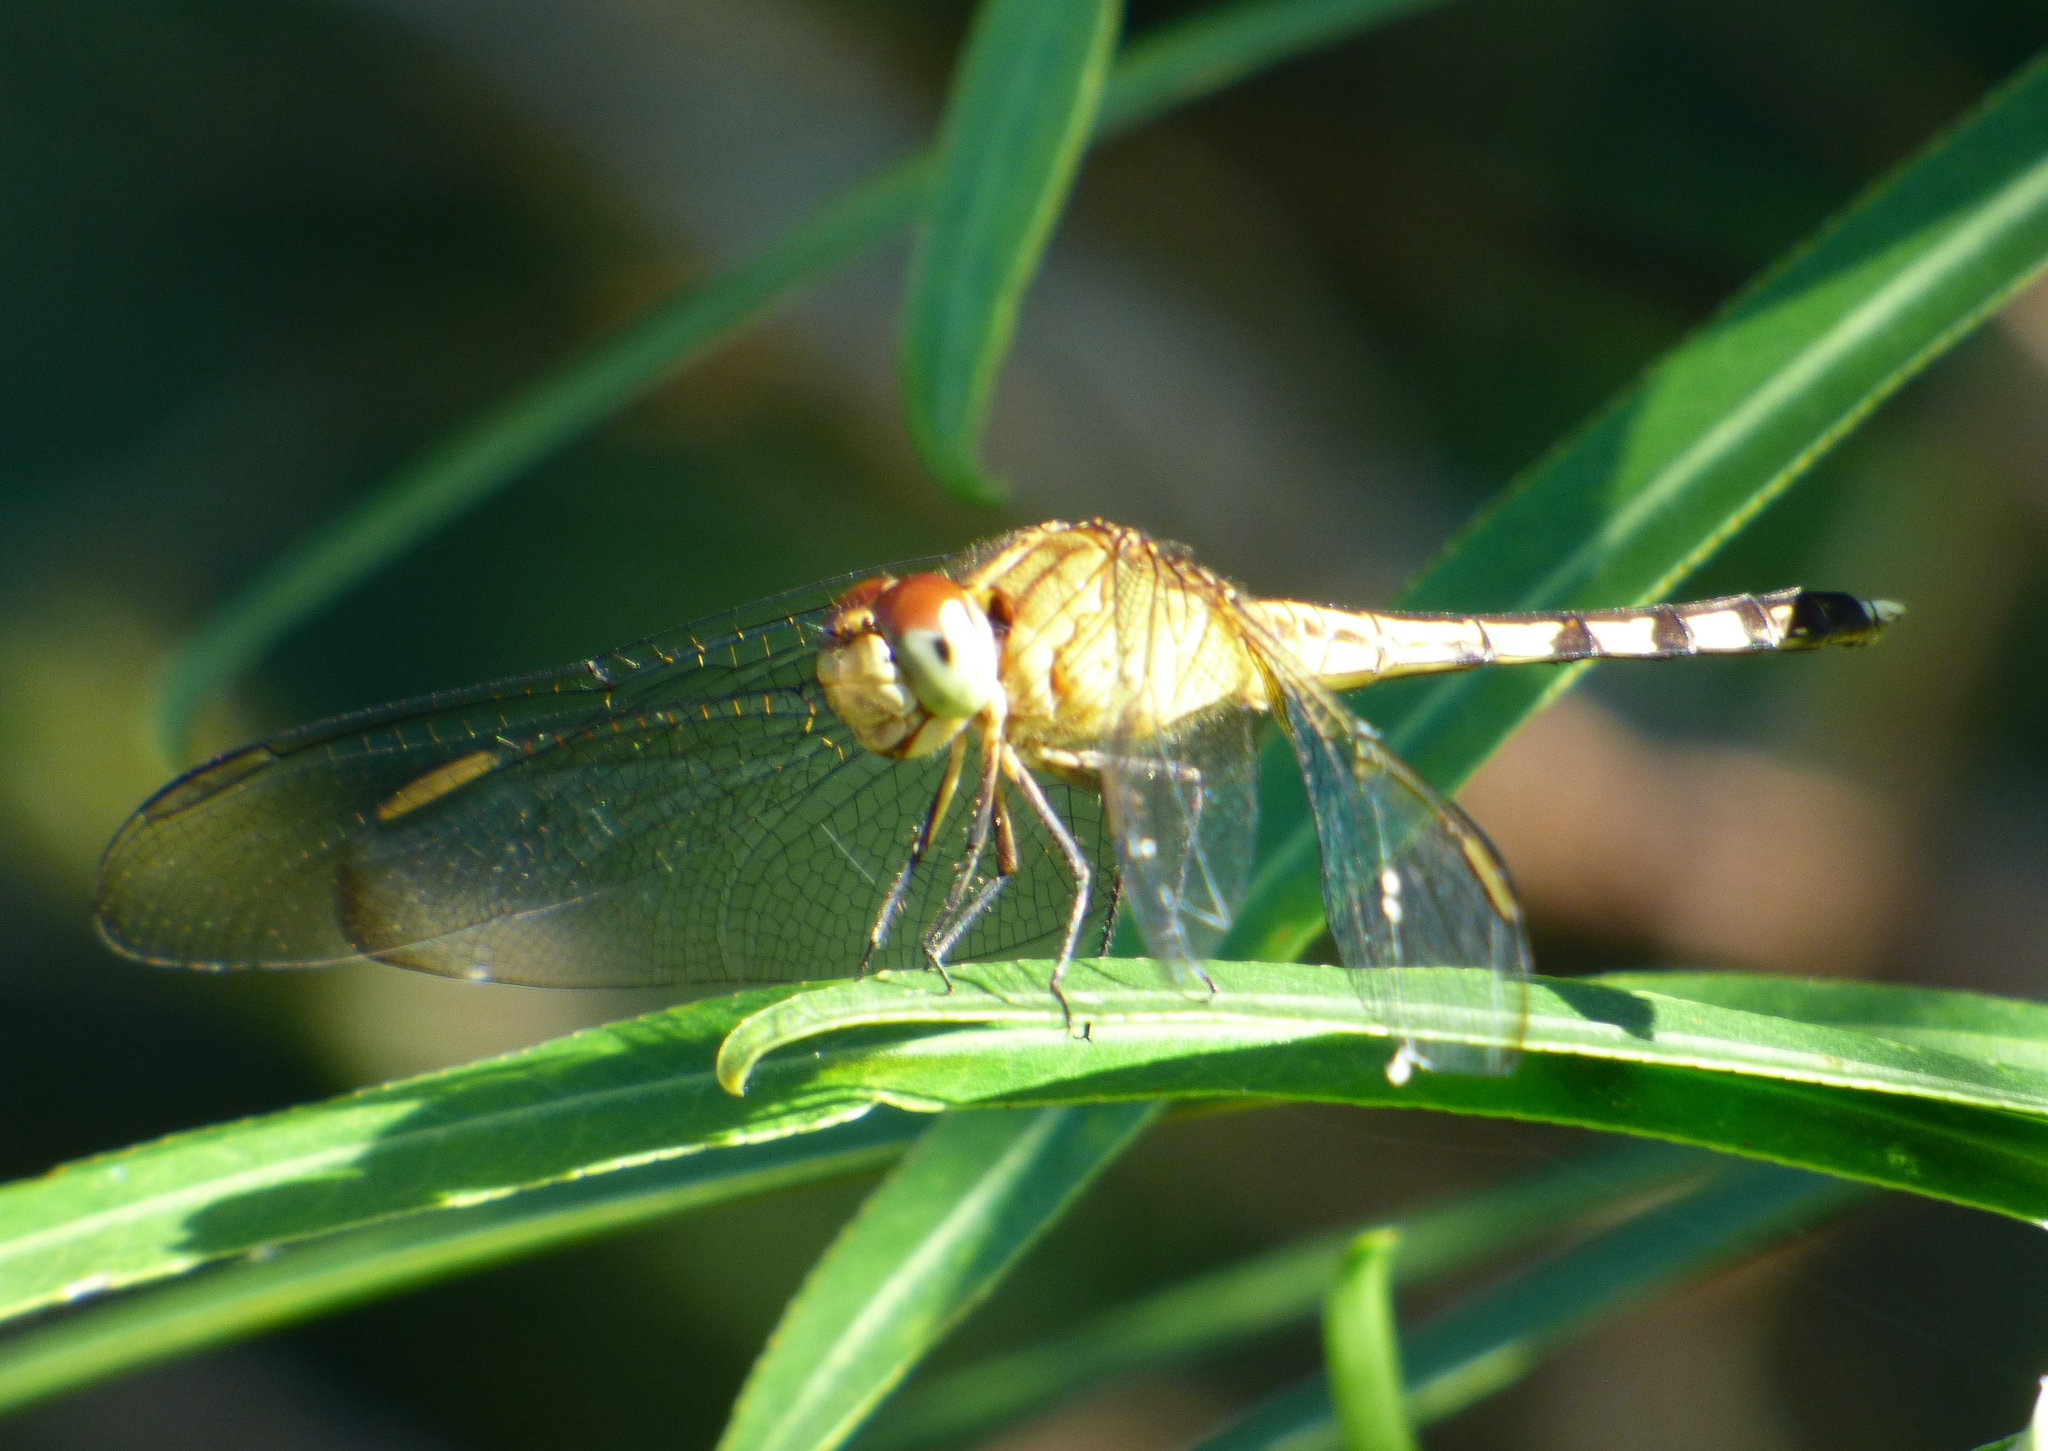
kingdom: Animalia
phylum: Arthropoda
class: Insecta
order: Odonata
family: Libellulidae
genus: Erythrodiplax
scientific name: Erythrodiplax umbrata
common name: Band-winged dragonlet
